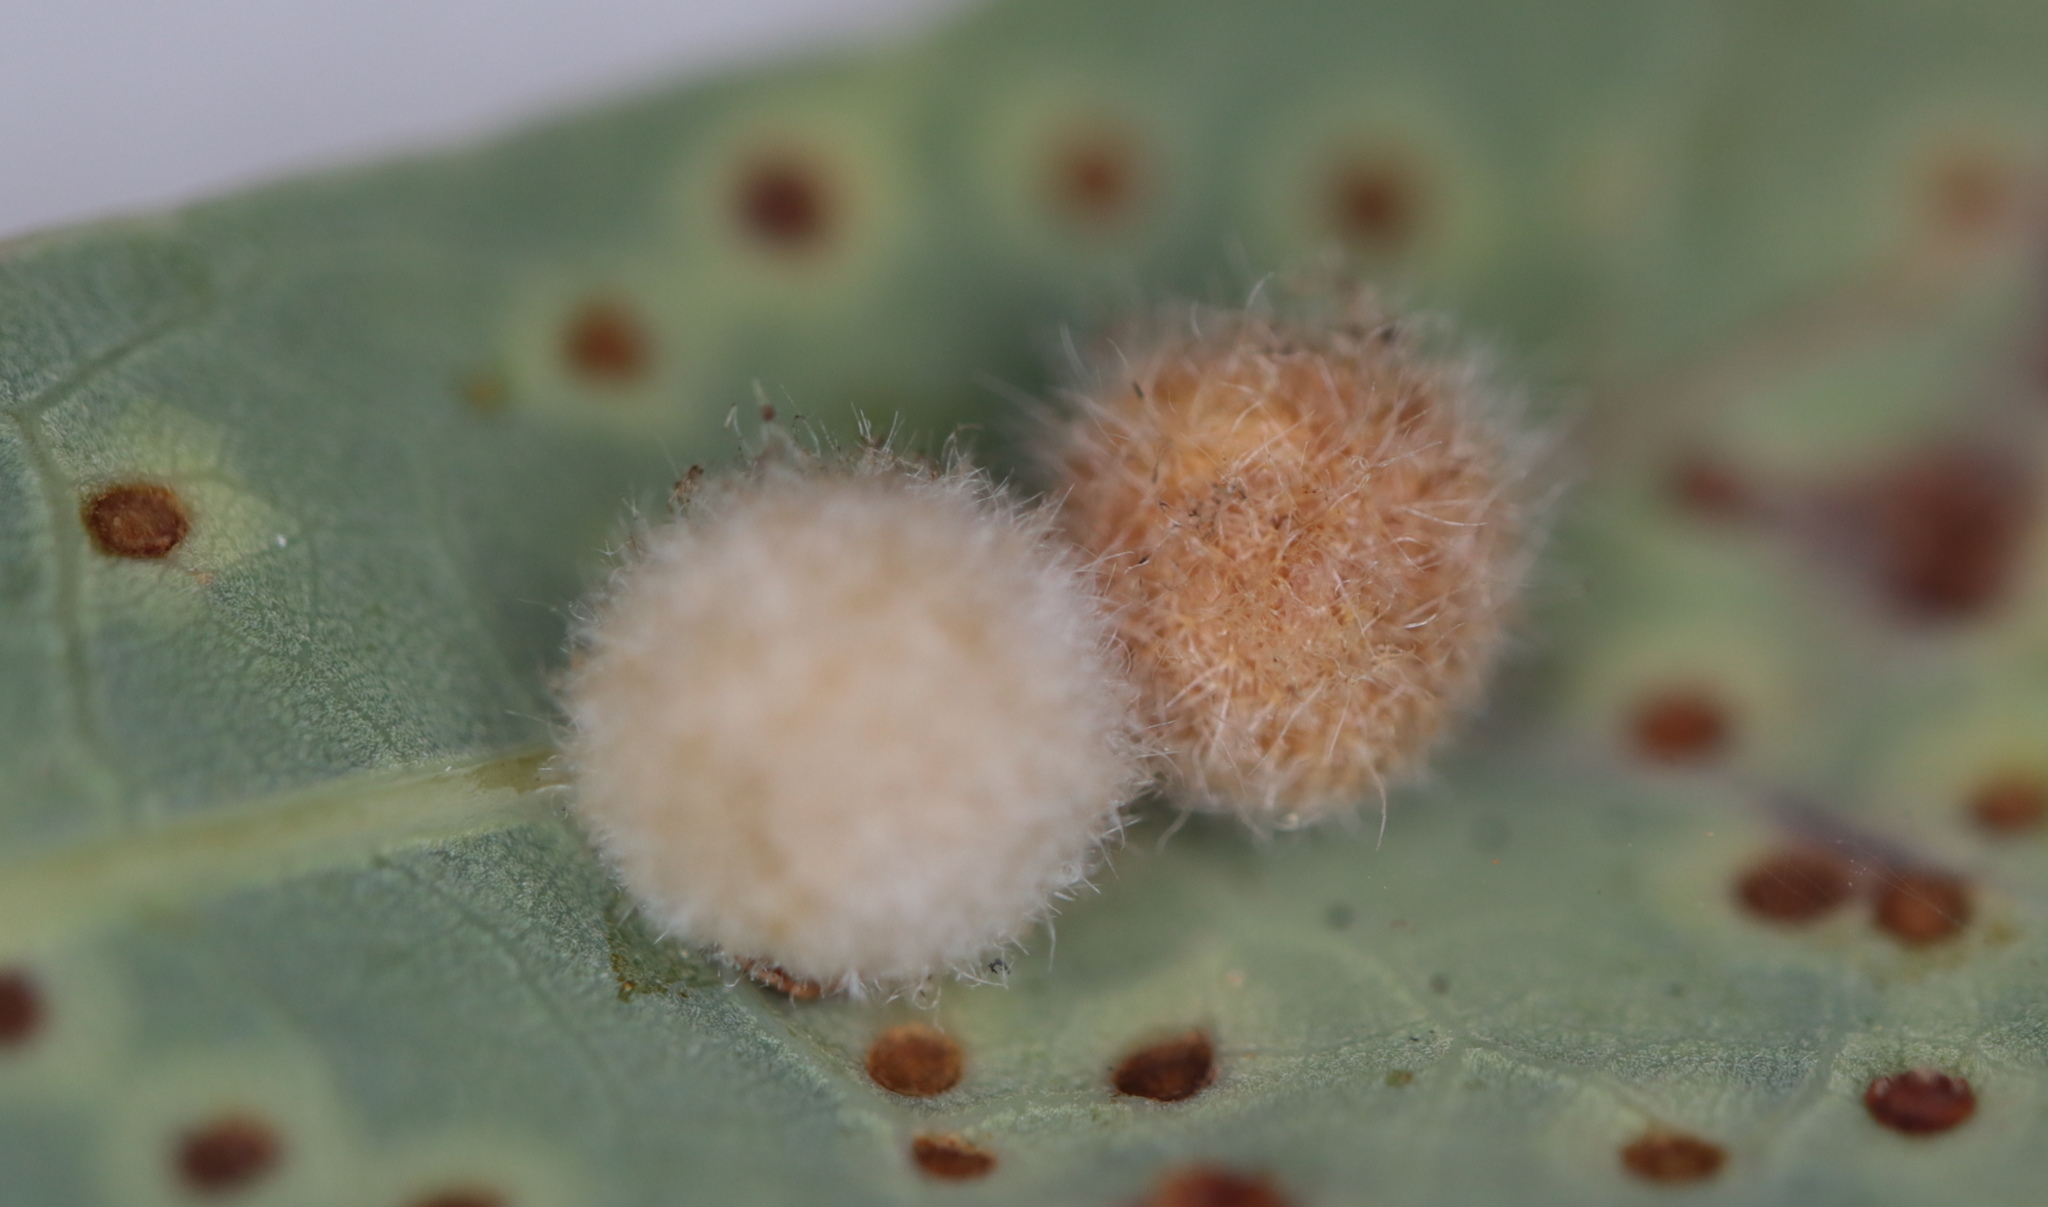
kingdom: Animalia
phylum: Arthropoda
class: Insecta
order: Hymenoptera
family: Cynipidae
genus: Philonix
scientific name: Philonix fulvicollis
